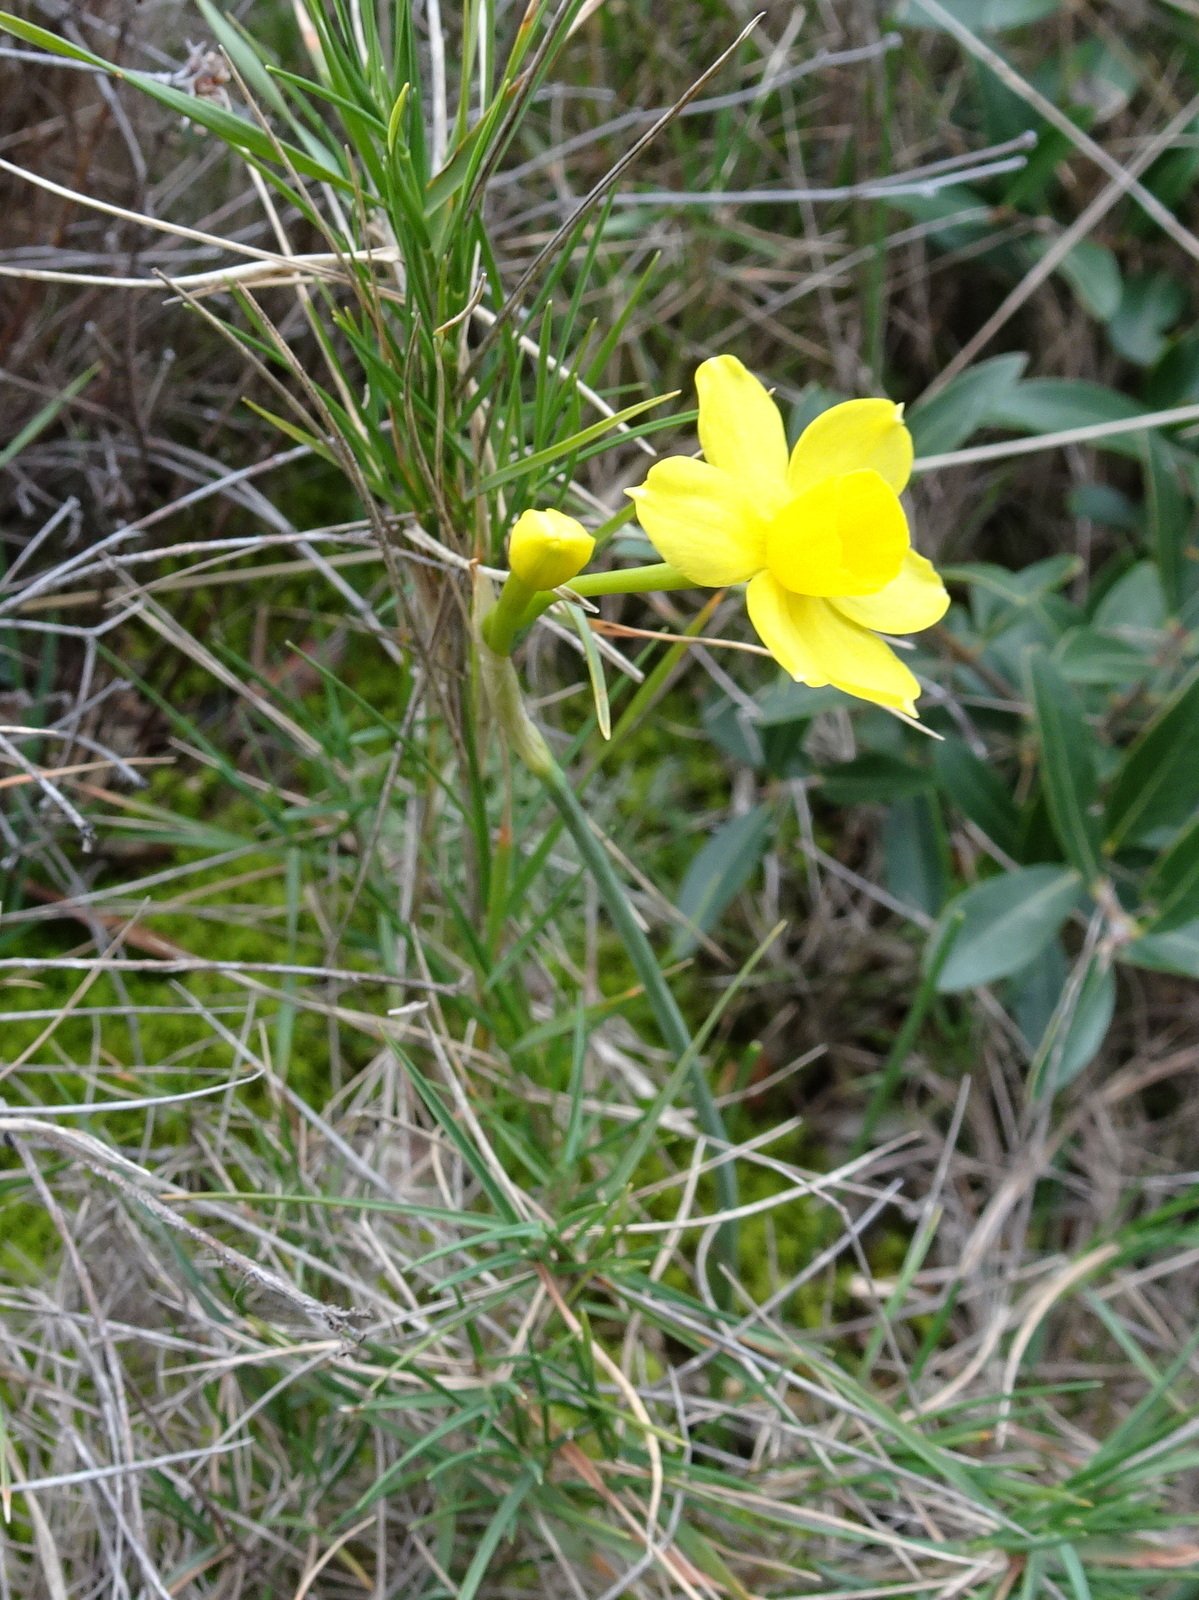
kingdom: Plantae
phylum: Tracheophyta
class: Liliopsida
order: Asparagales
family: Amaryllidaceae
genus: Narcissus
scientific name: Narcissus assoanus
